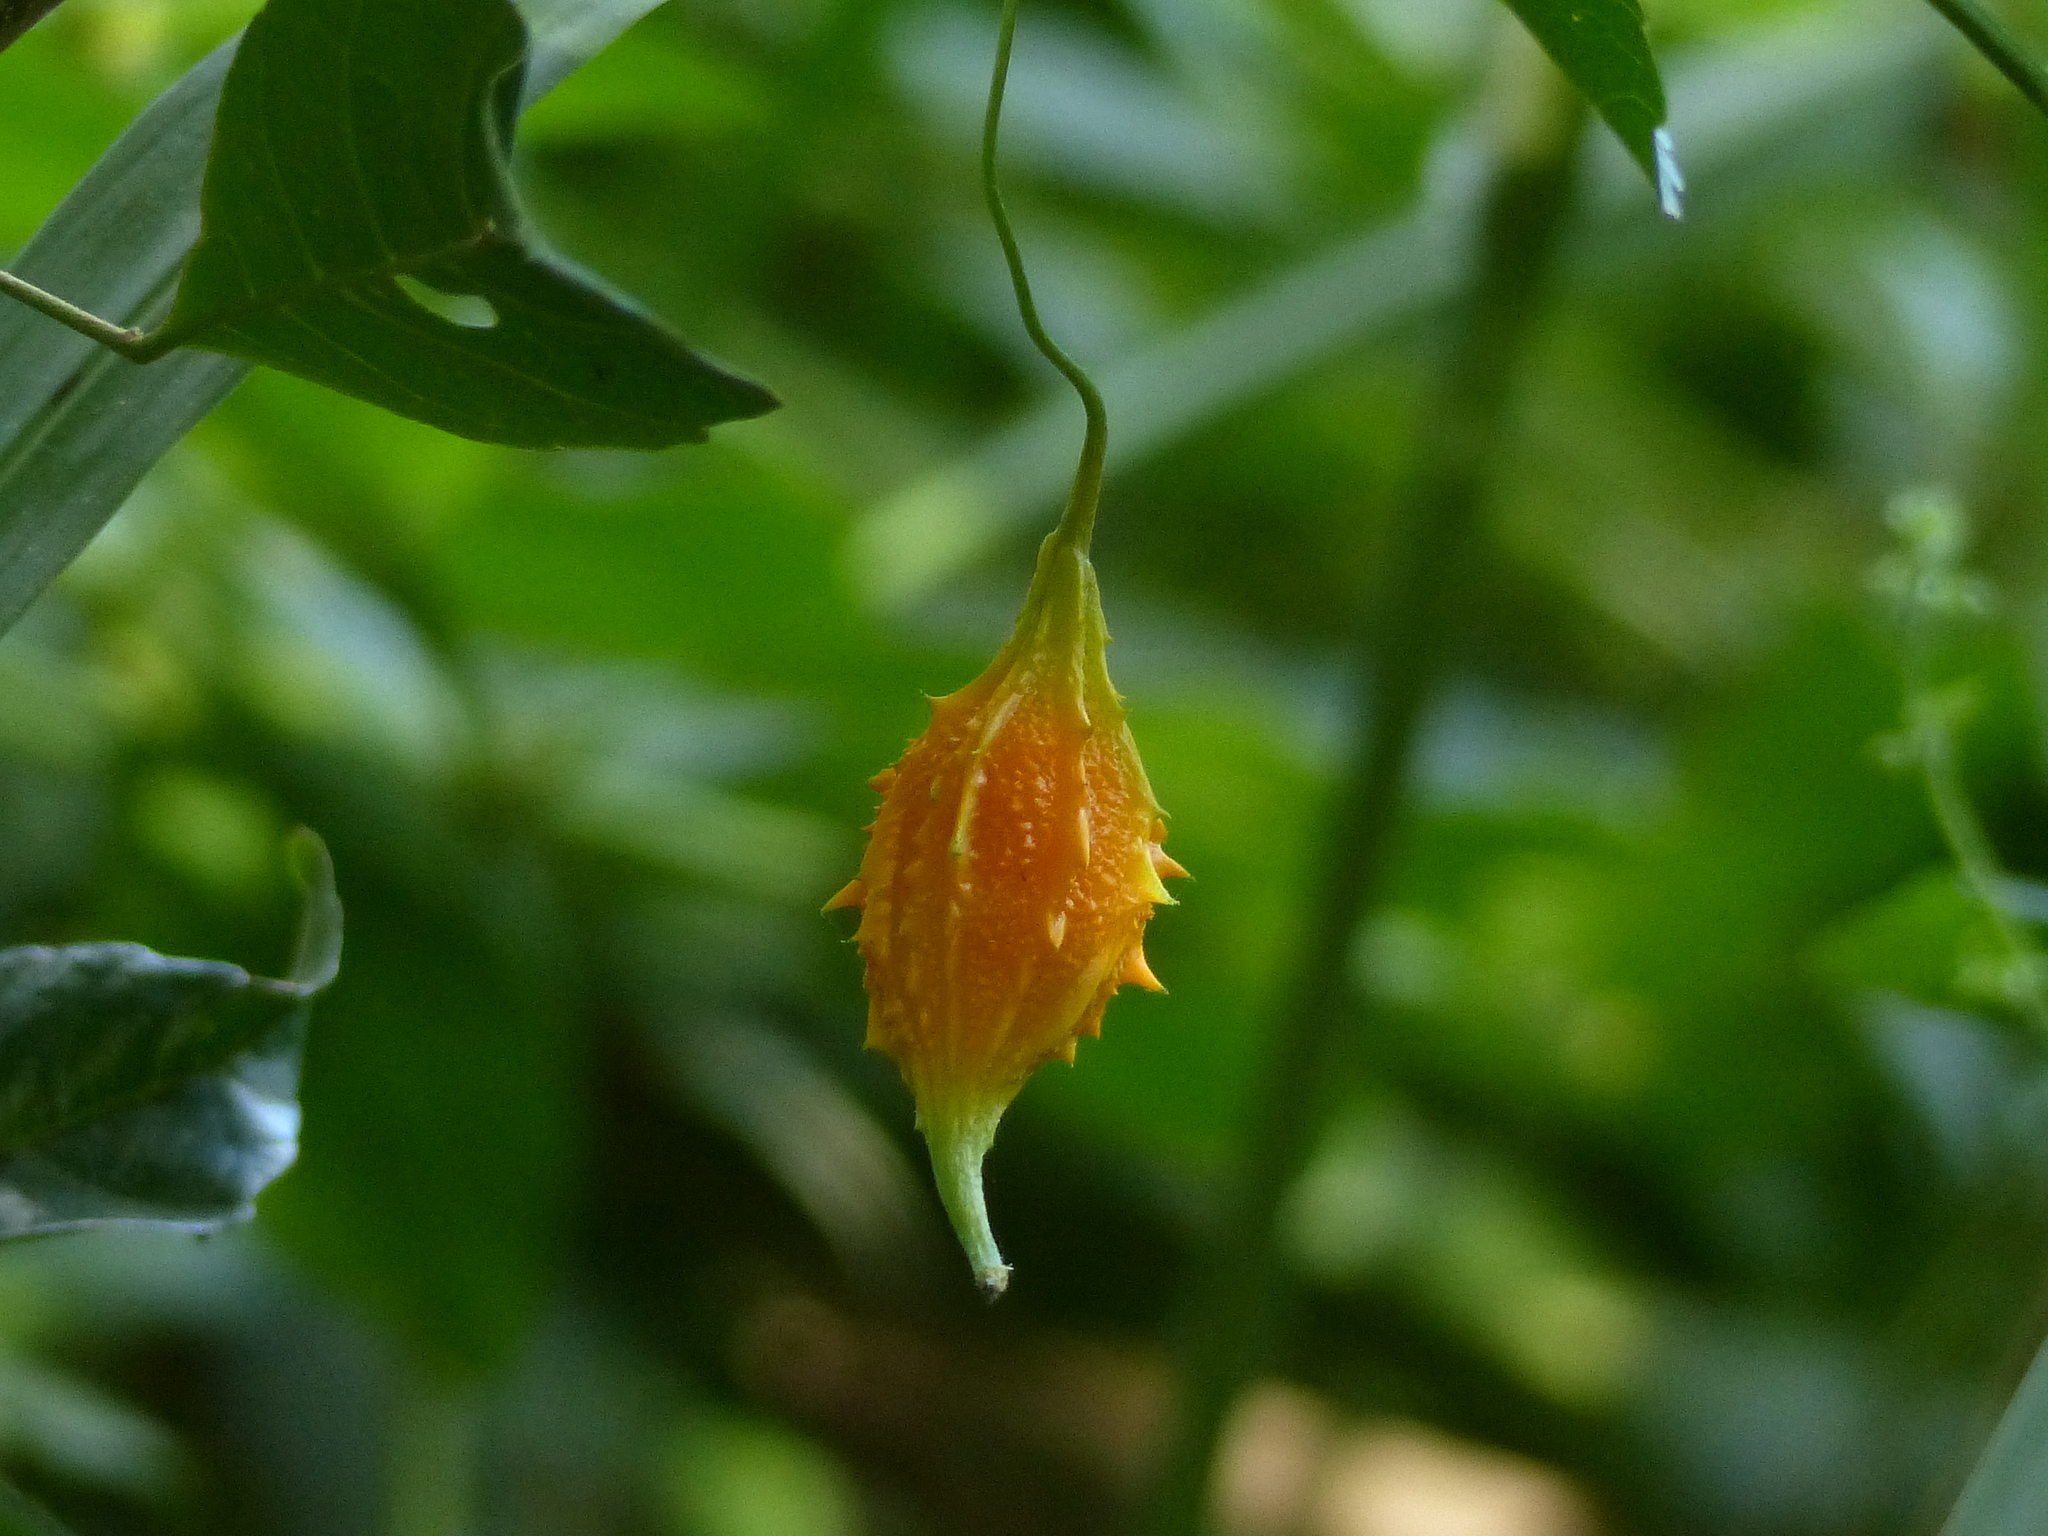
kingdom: Plantae
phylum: Tracheophyta
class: Magnoliopsida
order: Cucurbitales
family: Cucurbitaceae
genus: Momordica
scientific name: Momordica charantia
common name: Balsampear
